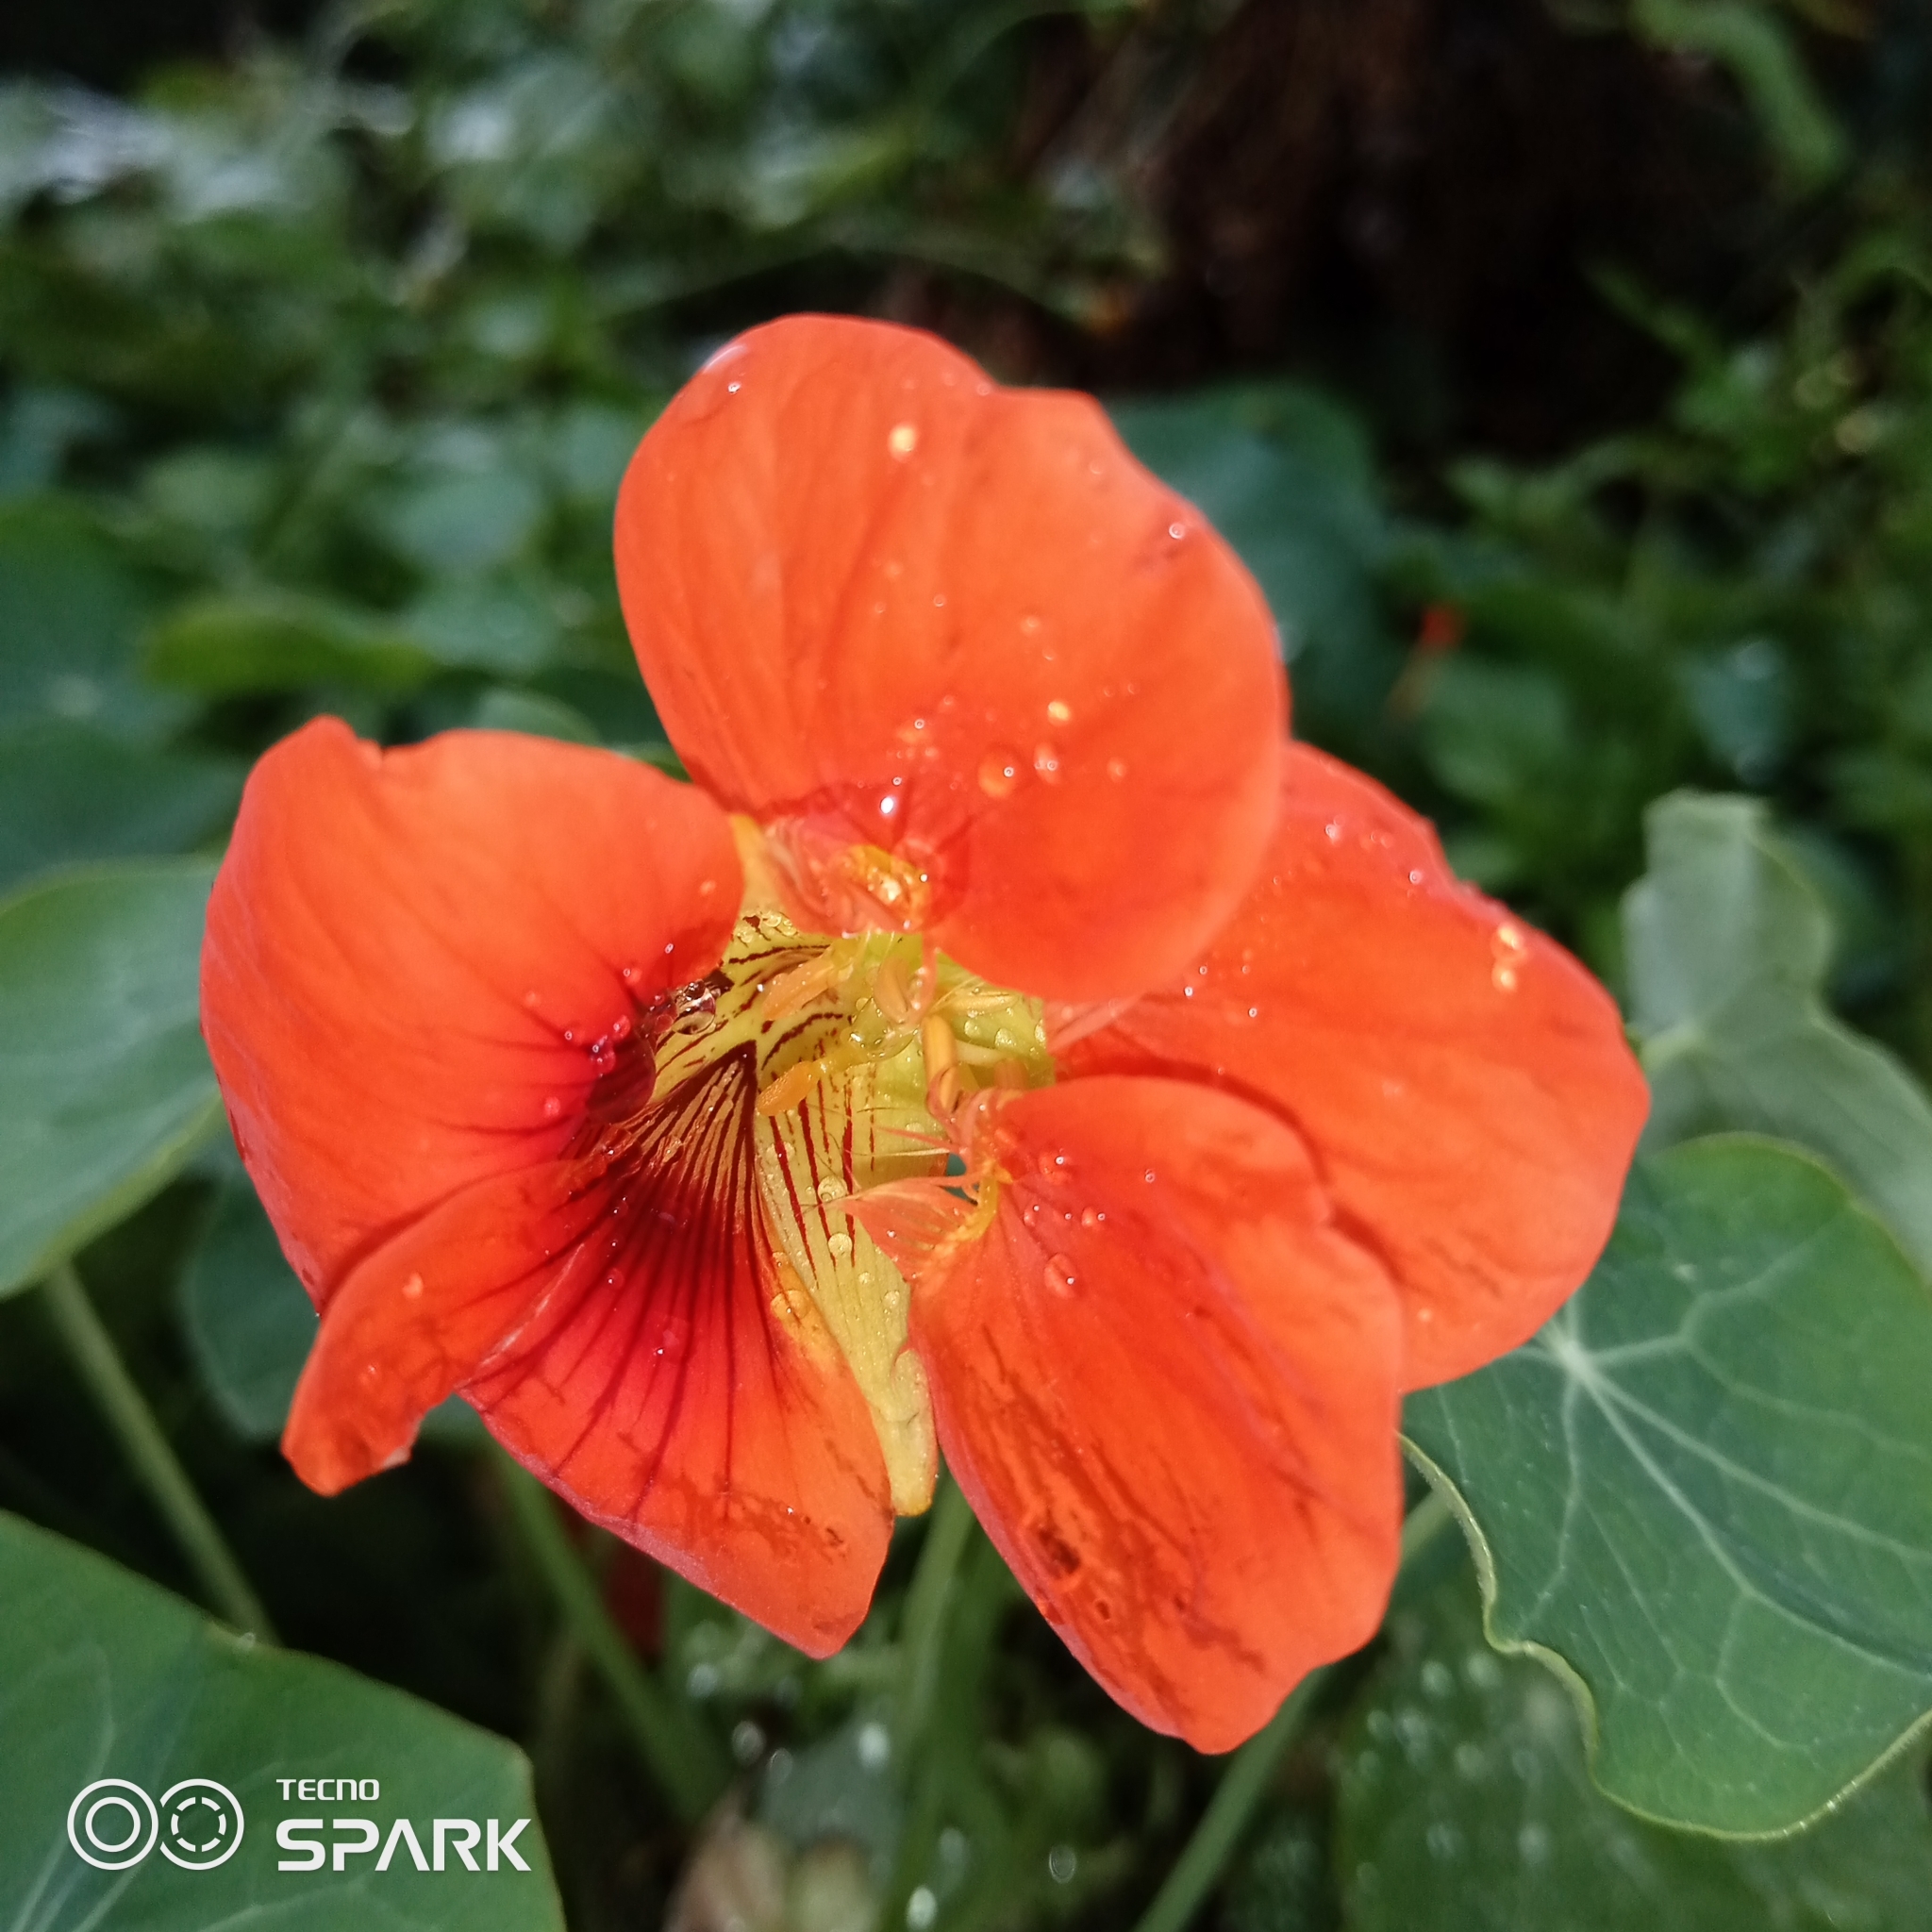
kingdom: Plantae
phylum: Tracheophyta
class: Magnoliopsida
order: Brassicales
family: Tropaeolaceae
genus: Tropaeolum
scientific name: Tropaeolum majus
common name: Nasturtium
